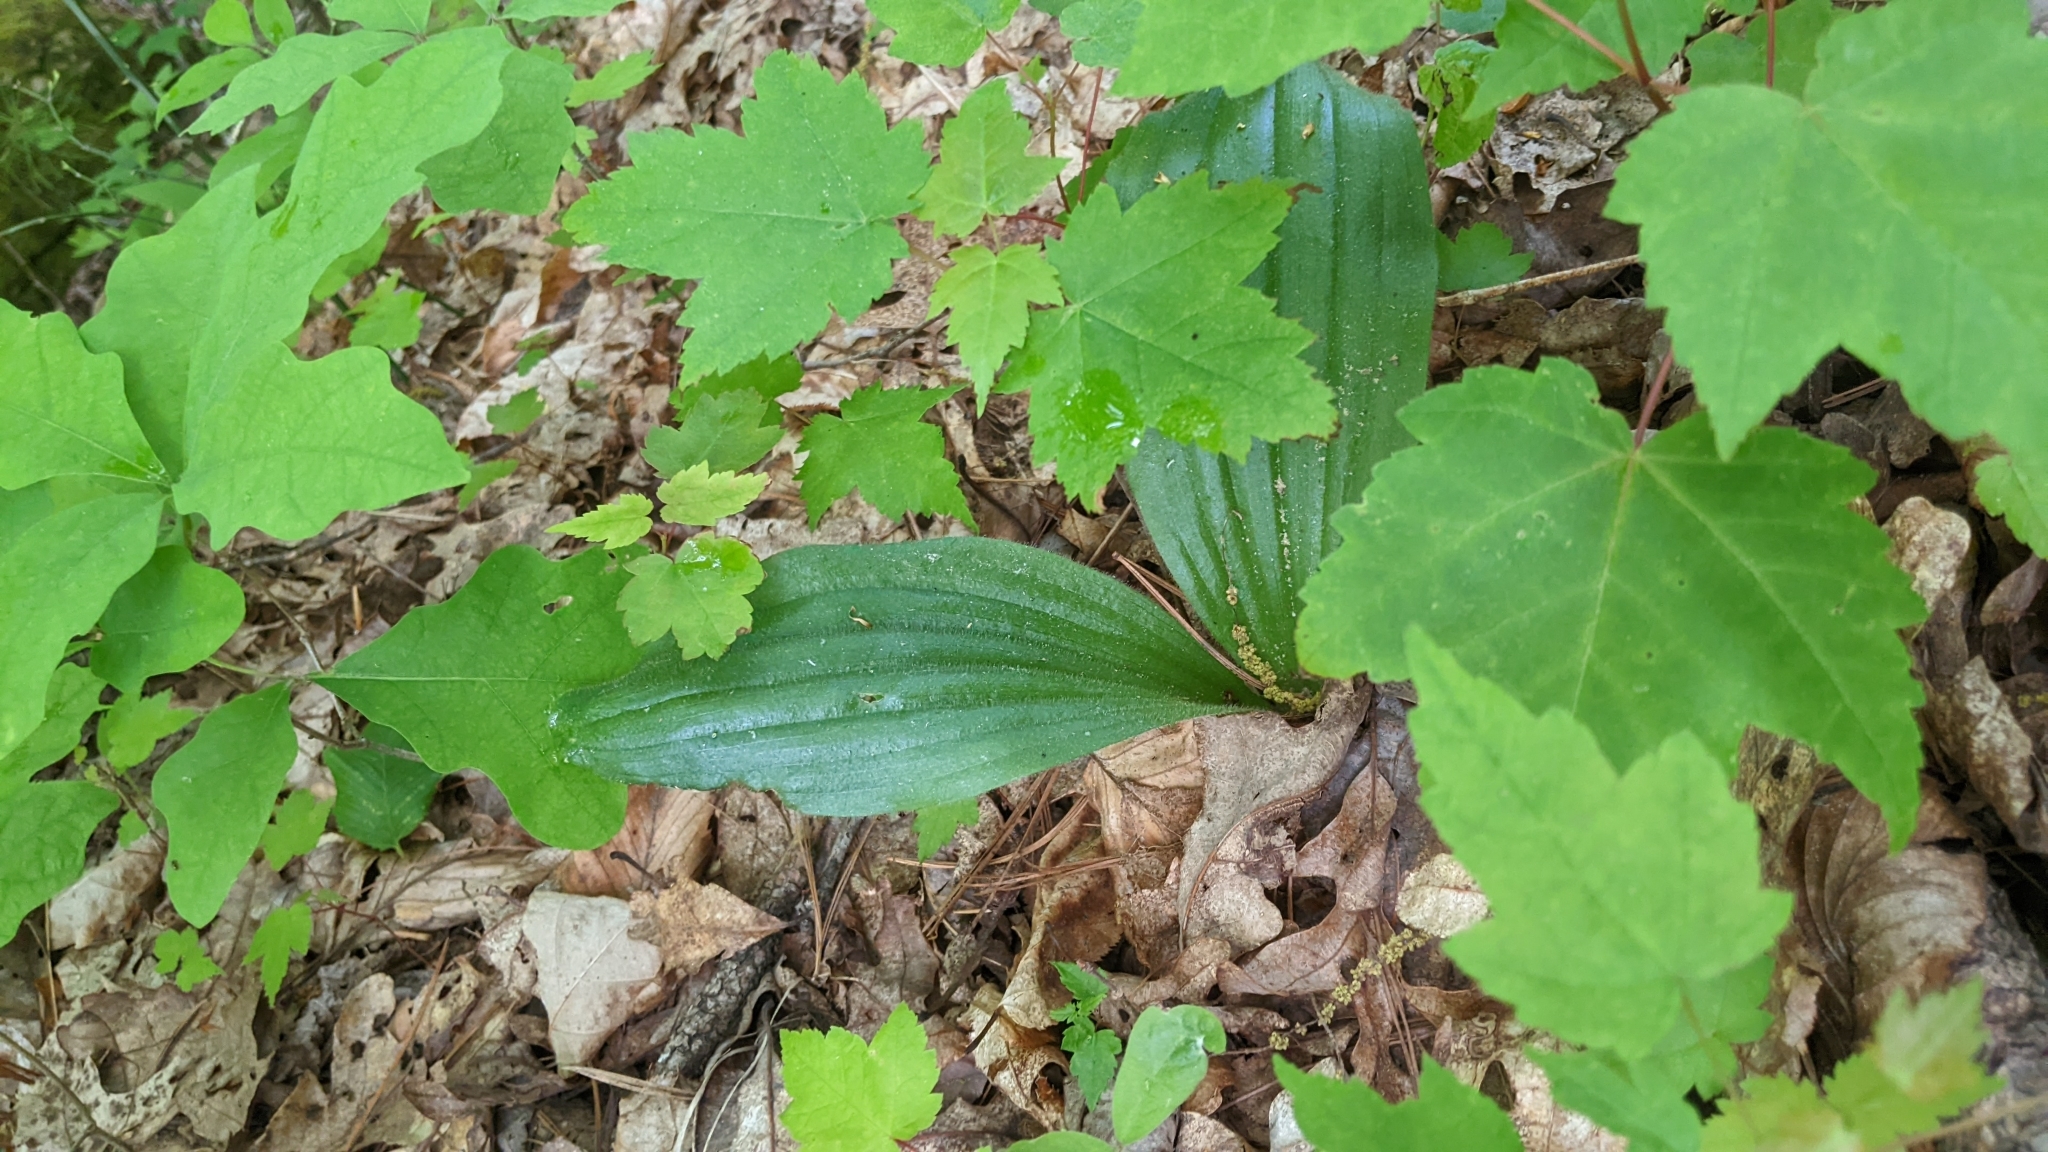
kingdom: Plantae
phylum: Tracheophyta
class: Liliopsida
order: Asparagales
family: Orchidaceae
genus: Cypripedium
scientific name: Cypripedium acaule
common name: Pink lady's-slipper
